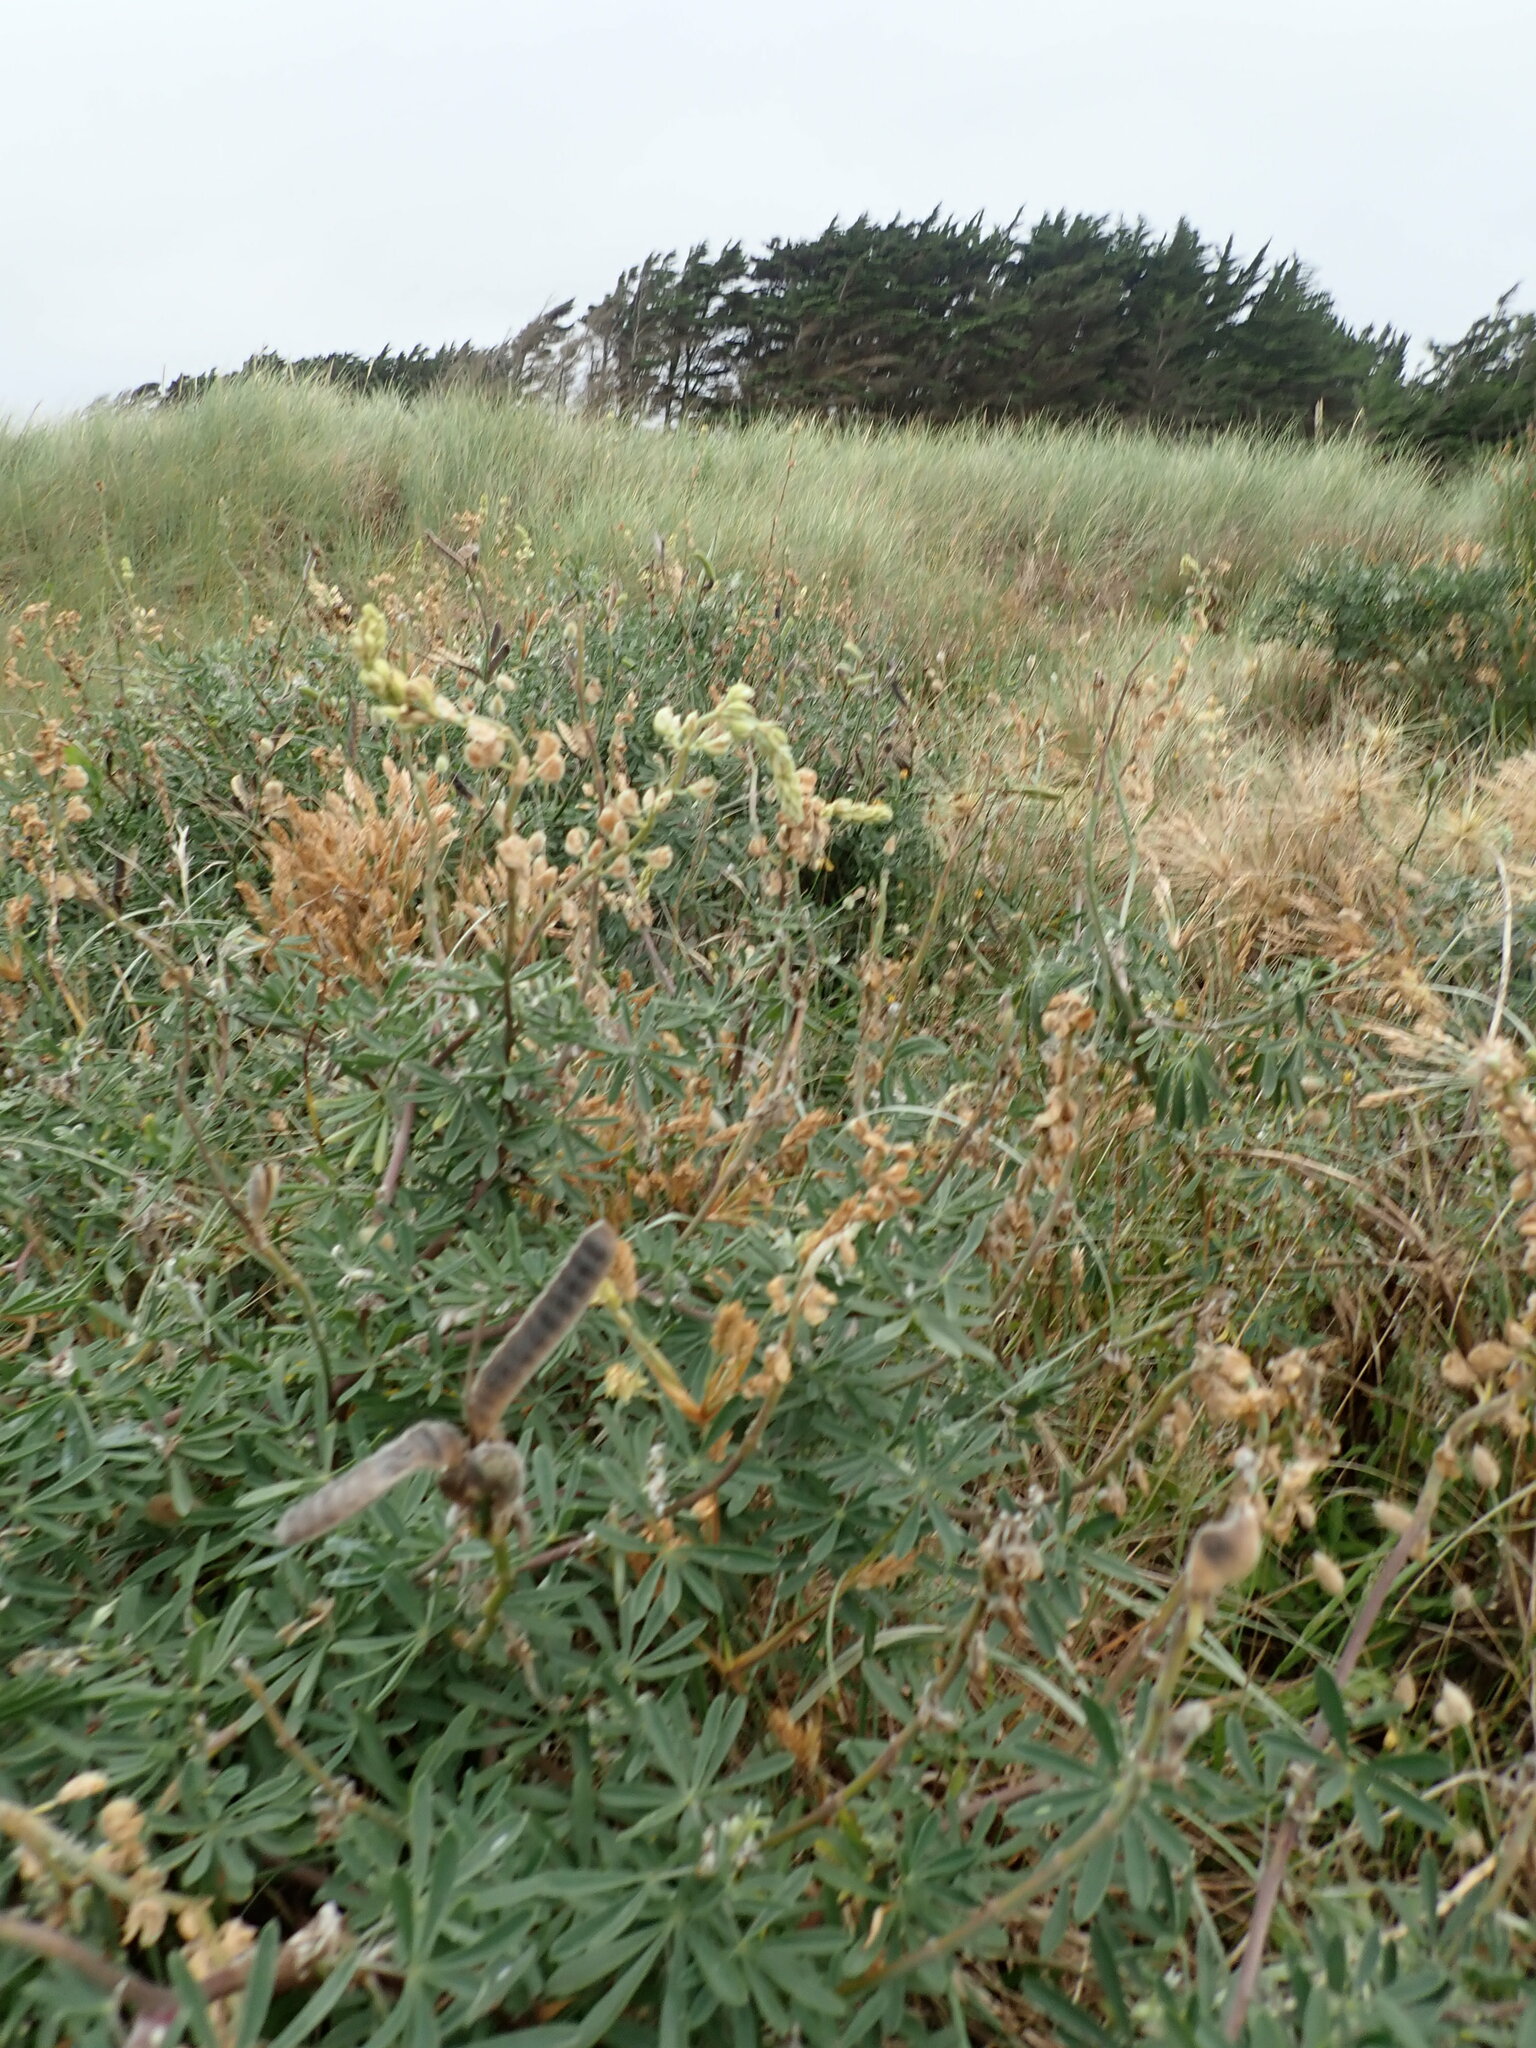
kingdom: Plantae
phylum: Tracheophyta
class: Magnoliopsida
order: Fabales
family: Fabaceae
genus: Lupinus
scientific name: Lupinus arboreus
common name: Yellow bush lupine
